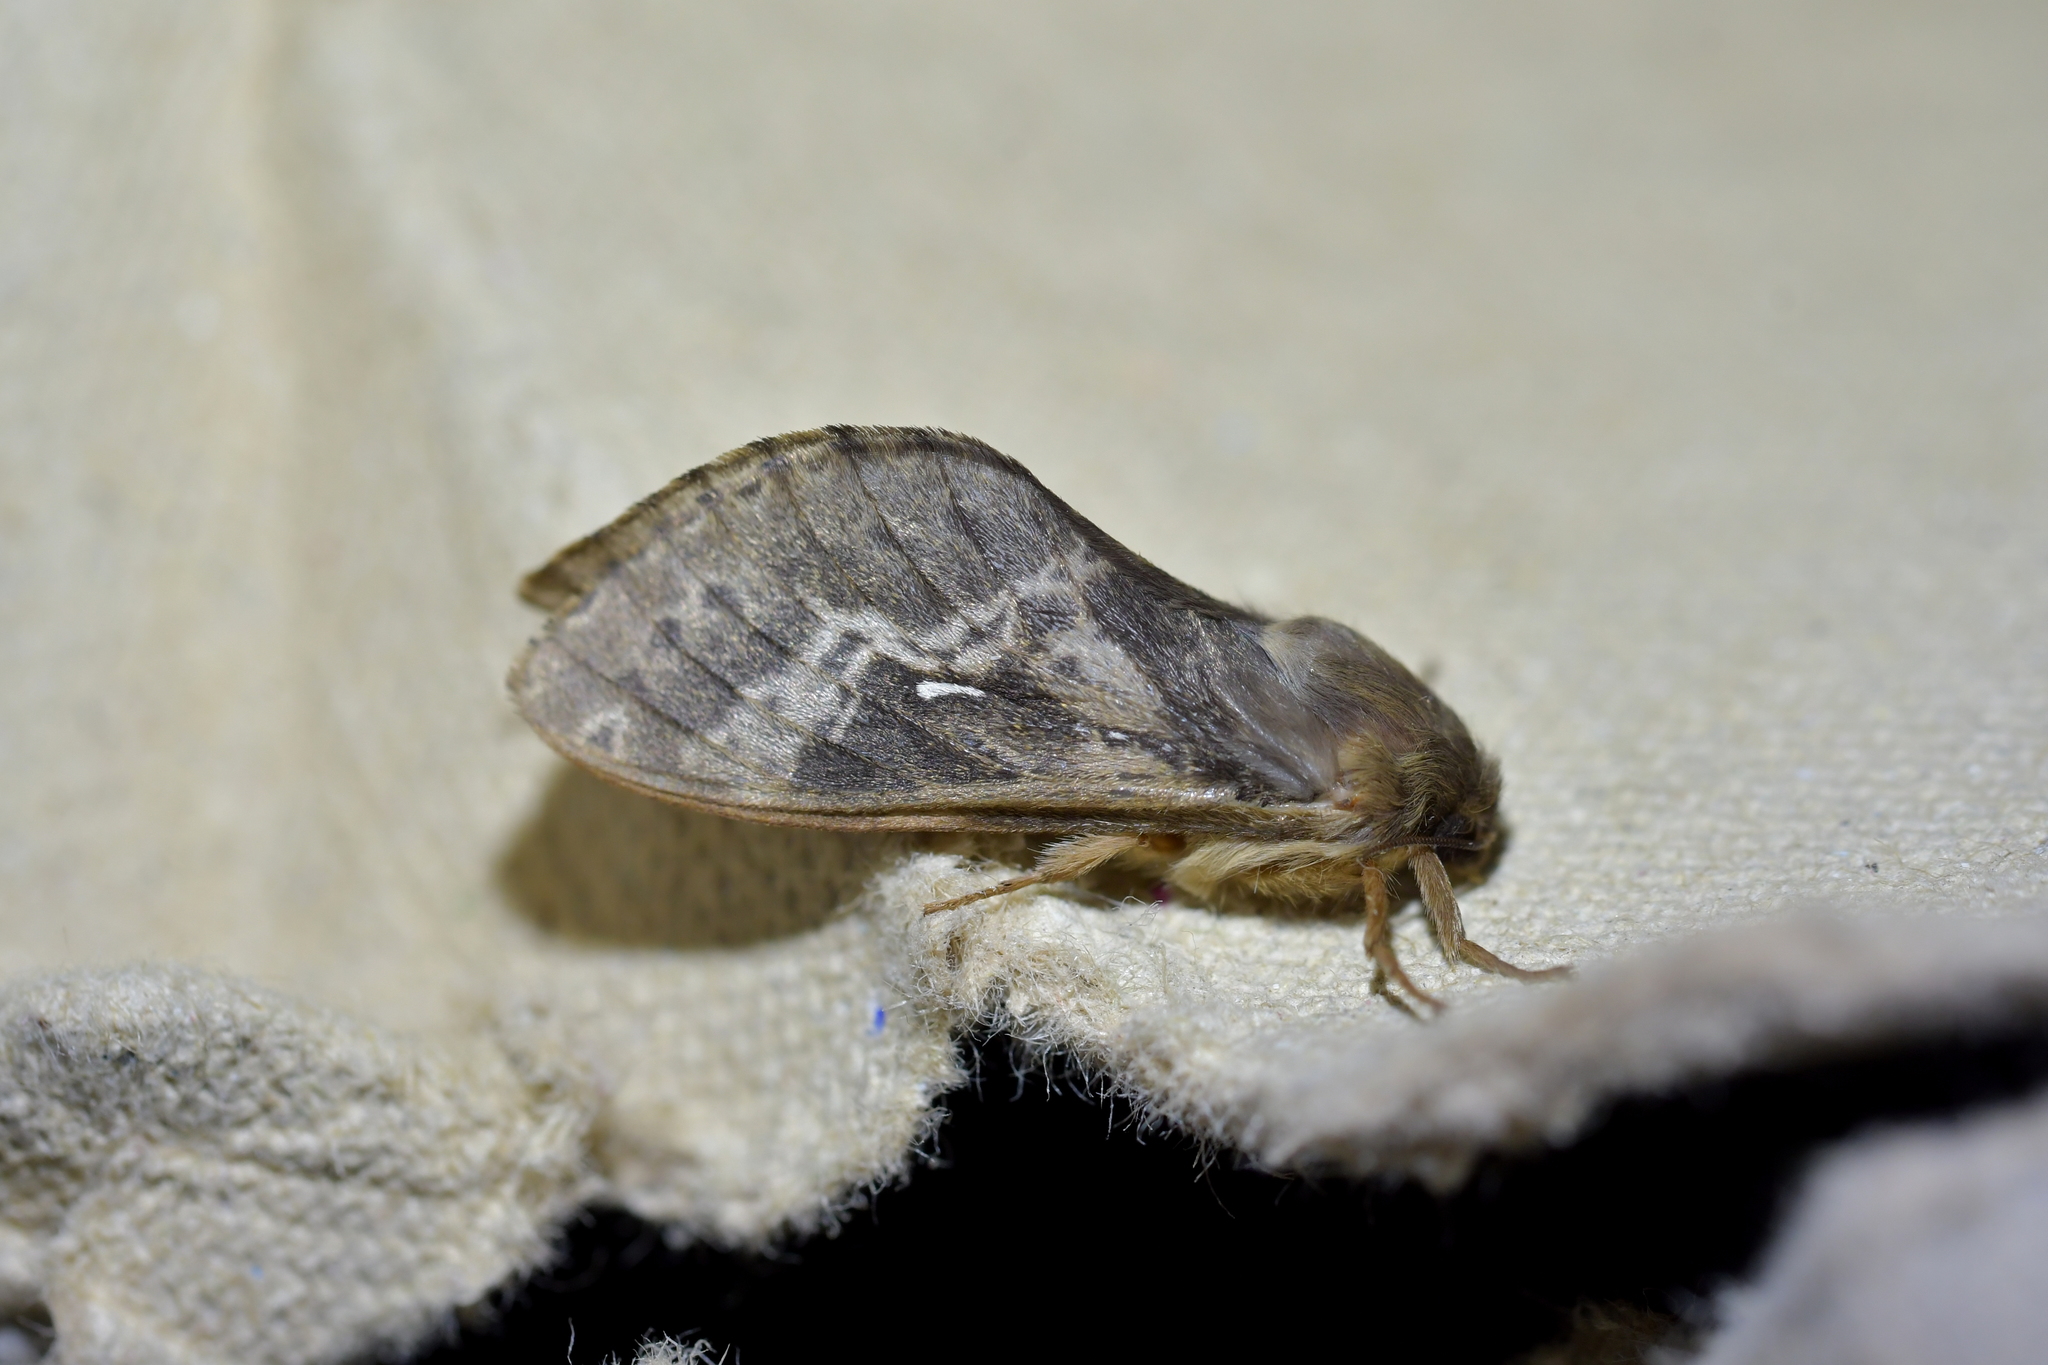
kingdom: Animalia
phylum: Arthropoda
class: Insecta
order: Lepidoptera
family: Hepialidae
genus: Wiseana
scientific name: Wiseana cervinata
